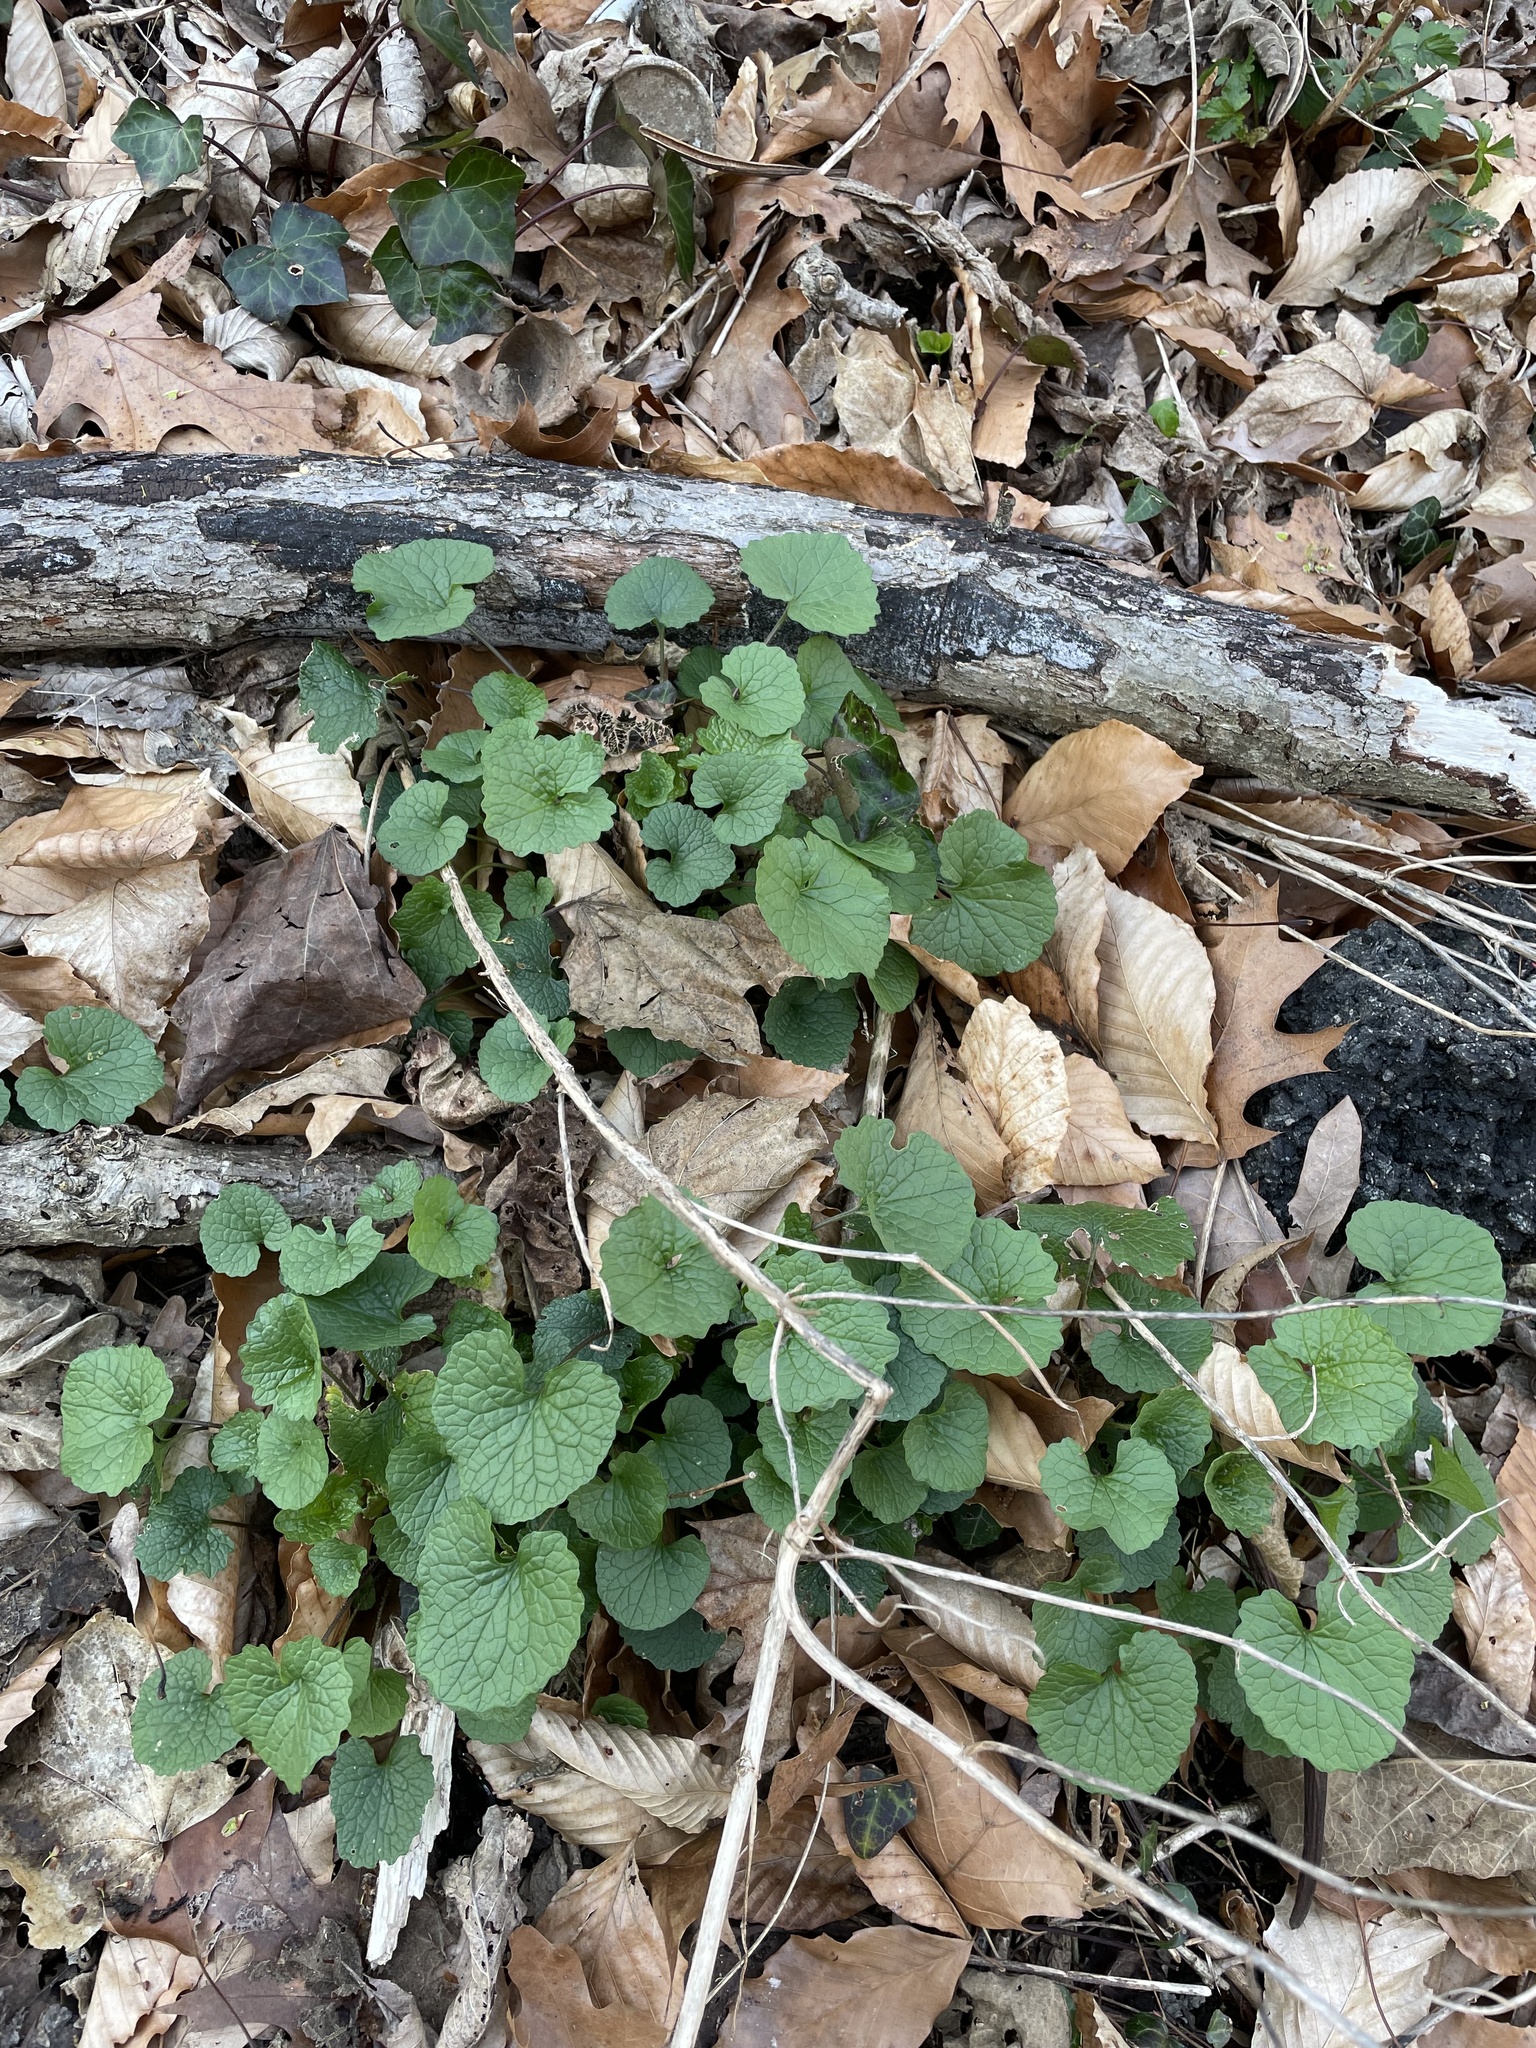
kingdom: Plantae
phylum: Tracheophyta
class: Magnoliopsida
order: Brassicales
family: Brassicaceae
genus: Alliaria
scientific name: Alliaria petiolata
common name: Garlic mustard
